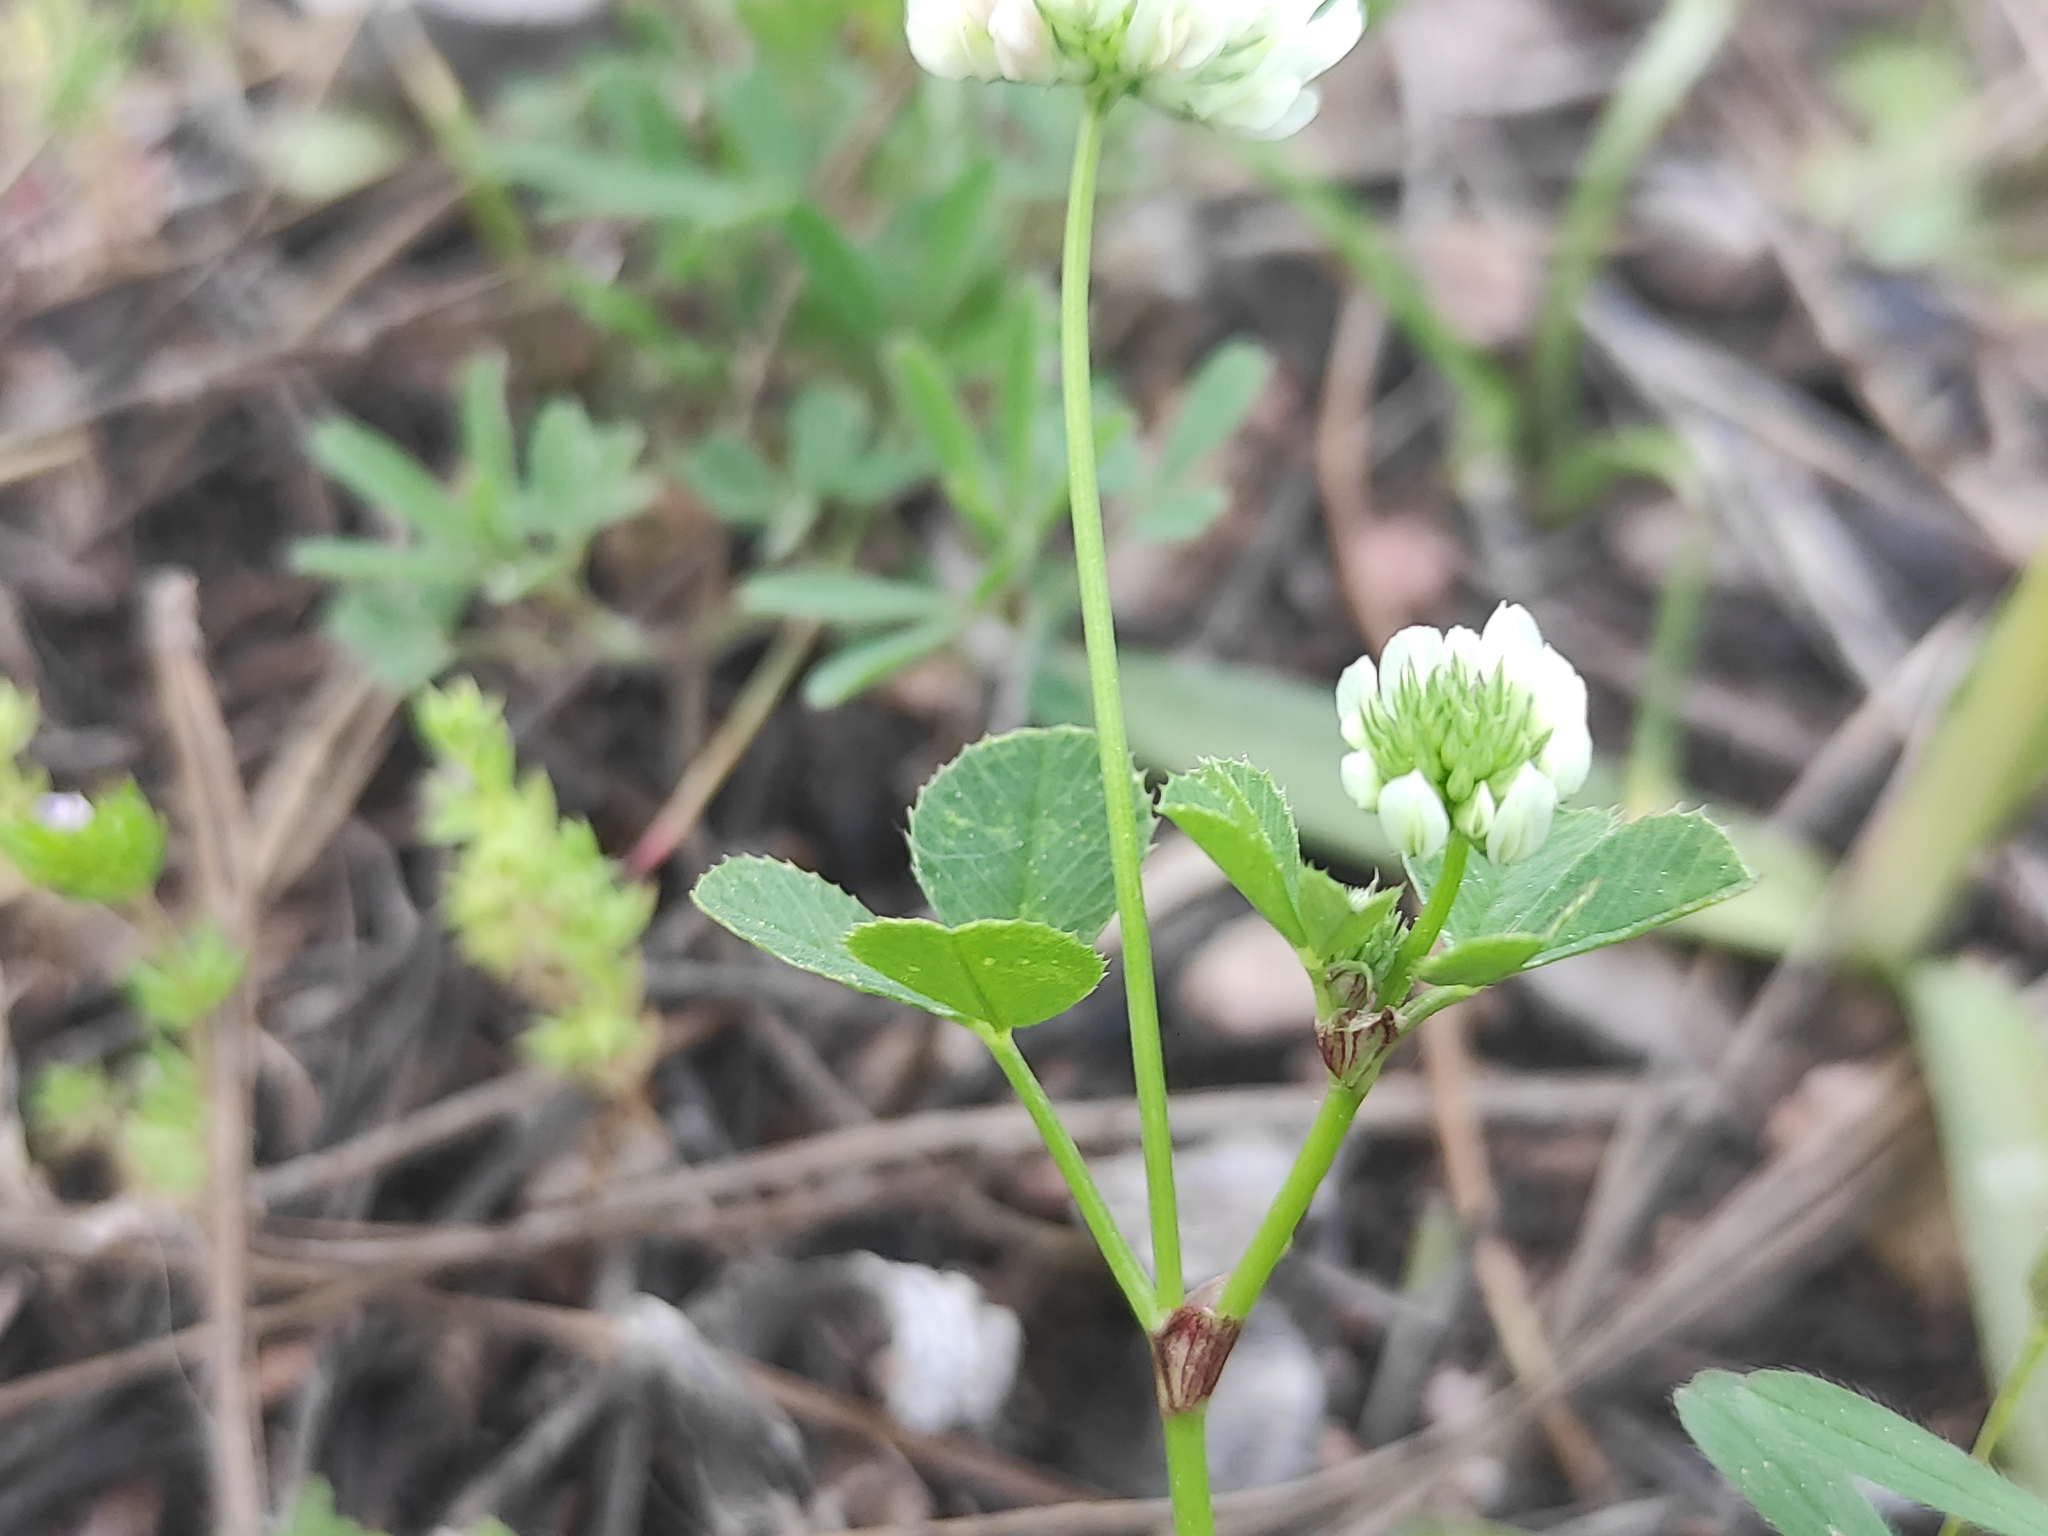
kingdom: Plantae
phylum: Tracheophyta
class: Magnoliopsida
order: Fabales
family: Fabaceae
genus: Trifolium
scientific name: Trifolium nigrescens
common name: Small white clover
